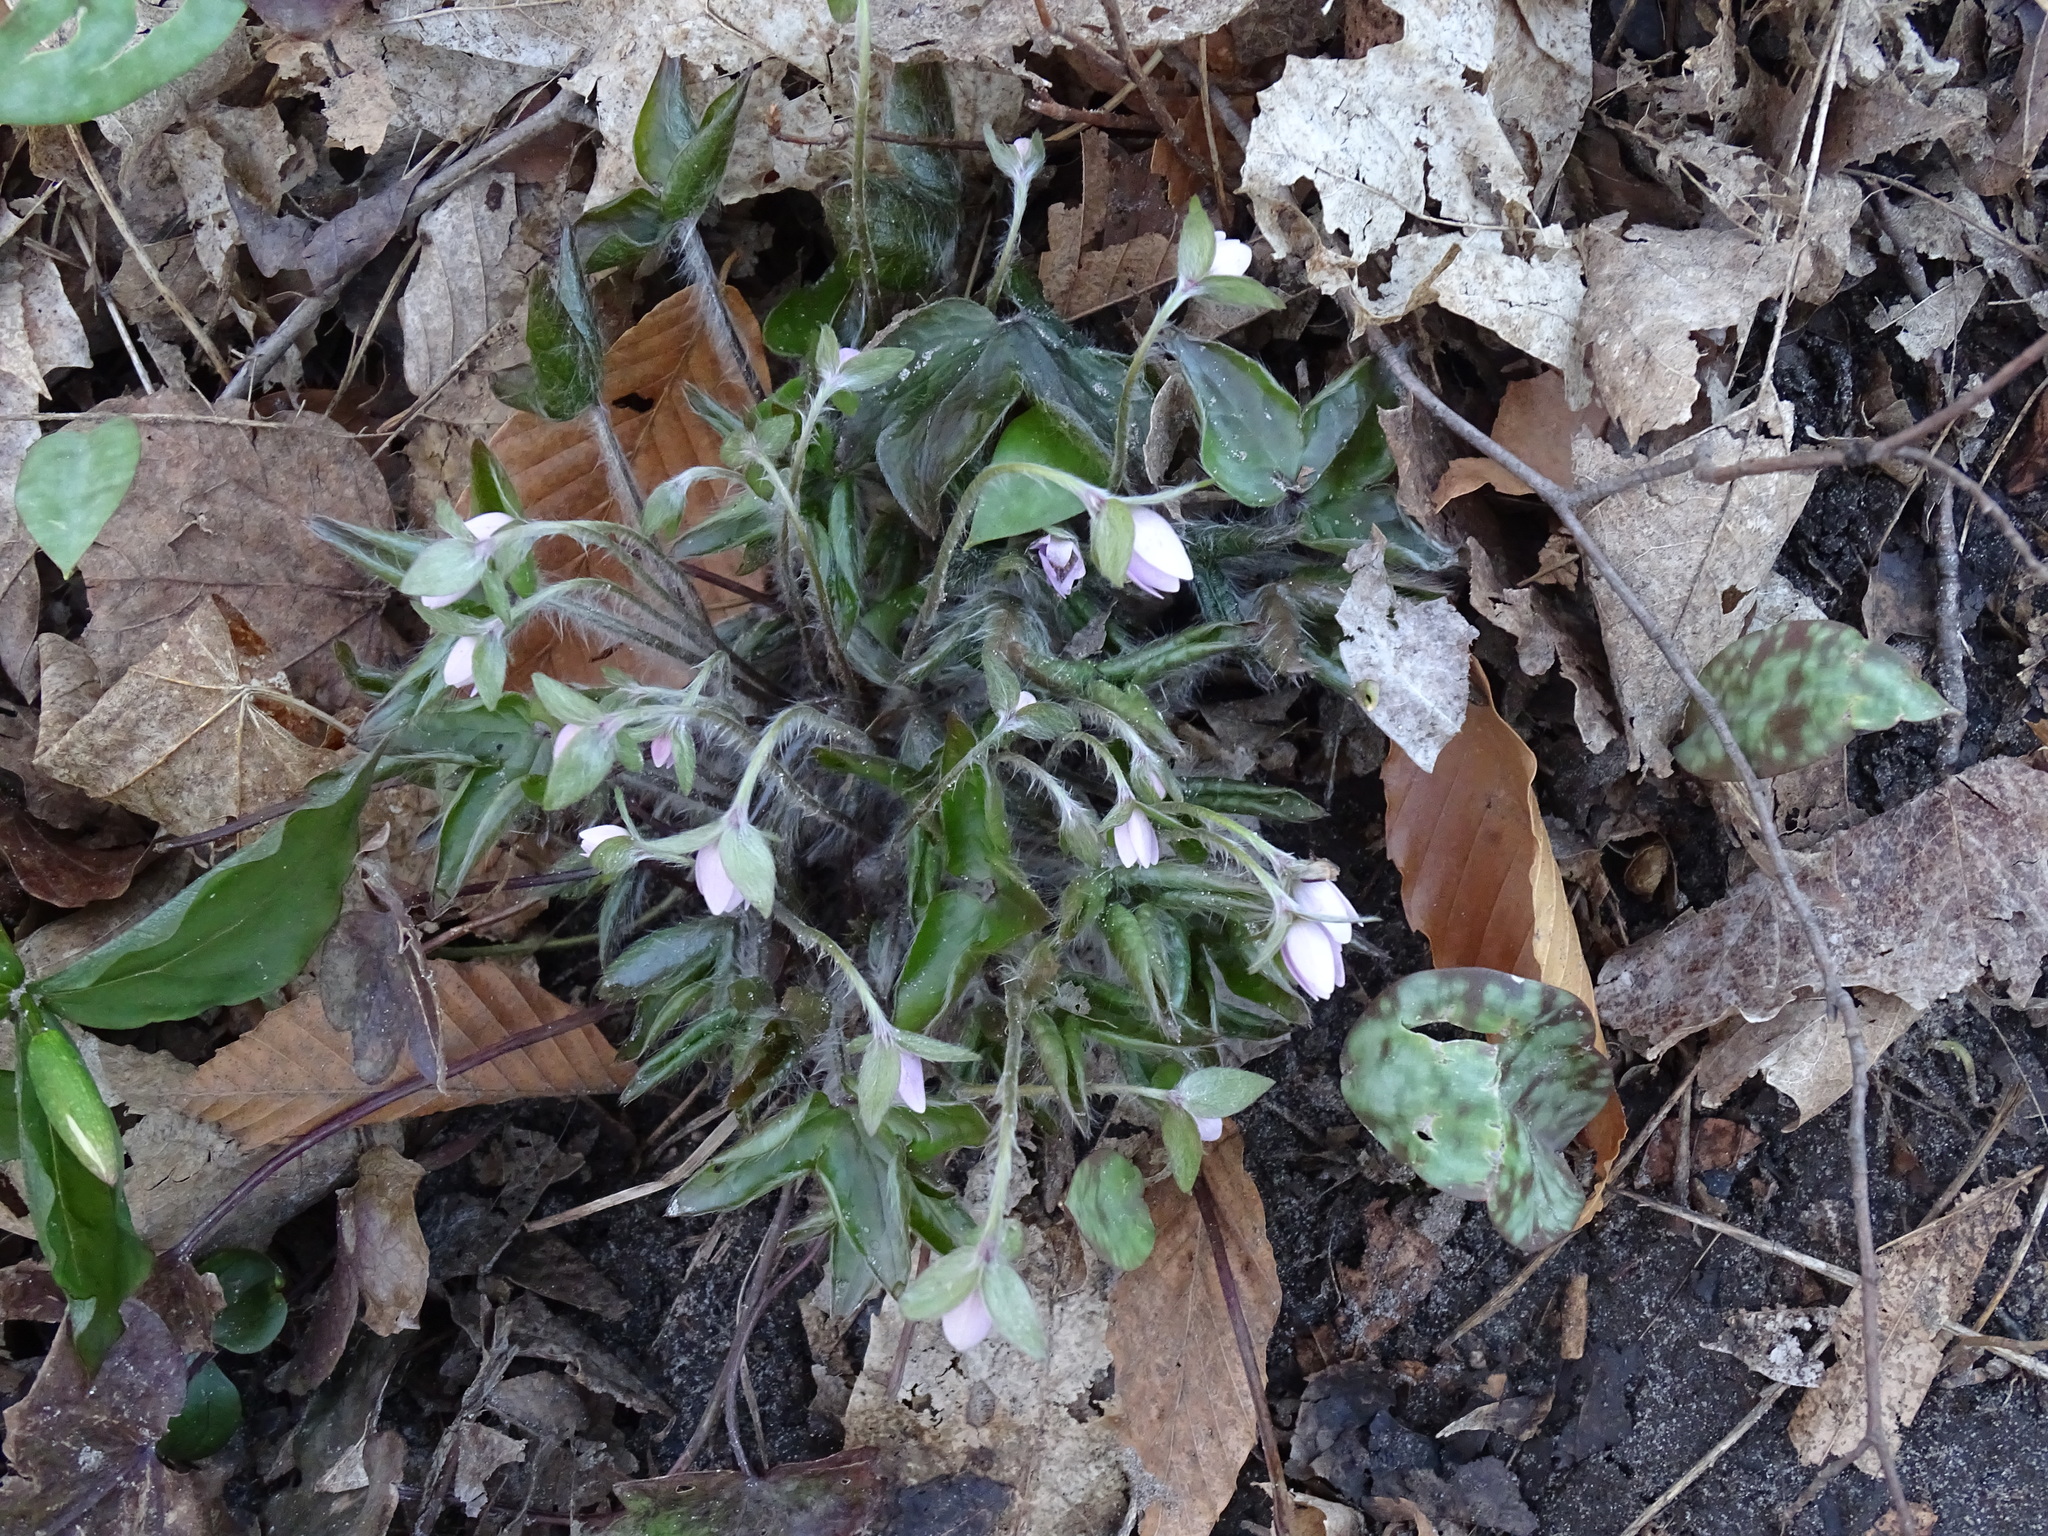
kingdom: Plantae
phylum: Tracheophyta
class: Magnoliopsida
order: Ranunculales
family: Ranunculaceae
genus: Hepatica
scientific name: Hepatica acutiloba
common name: Sharp-lobed hepatica
